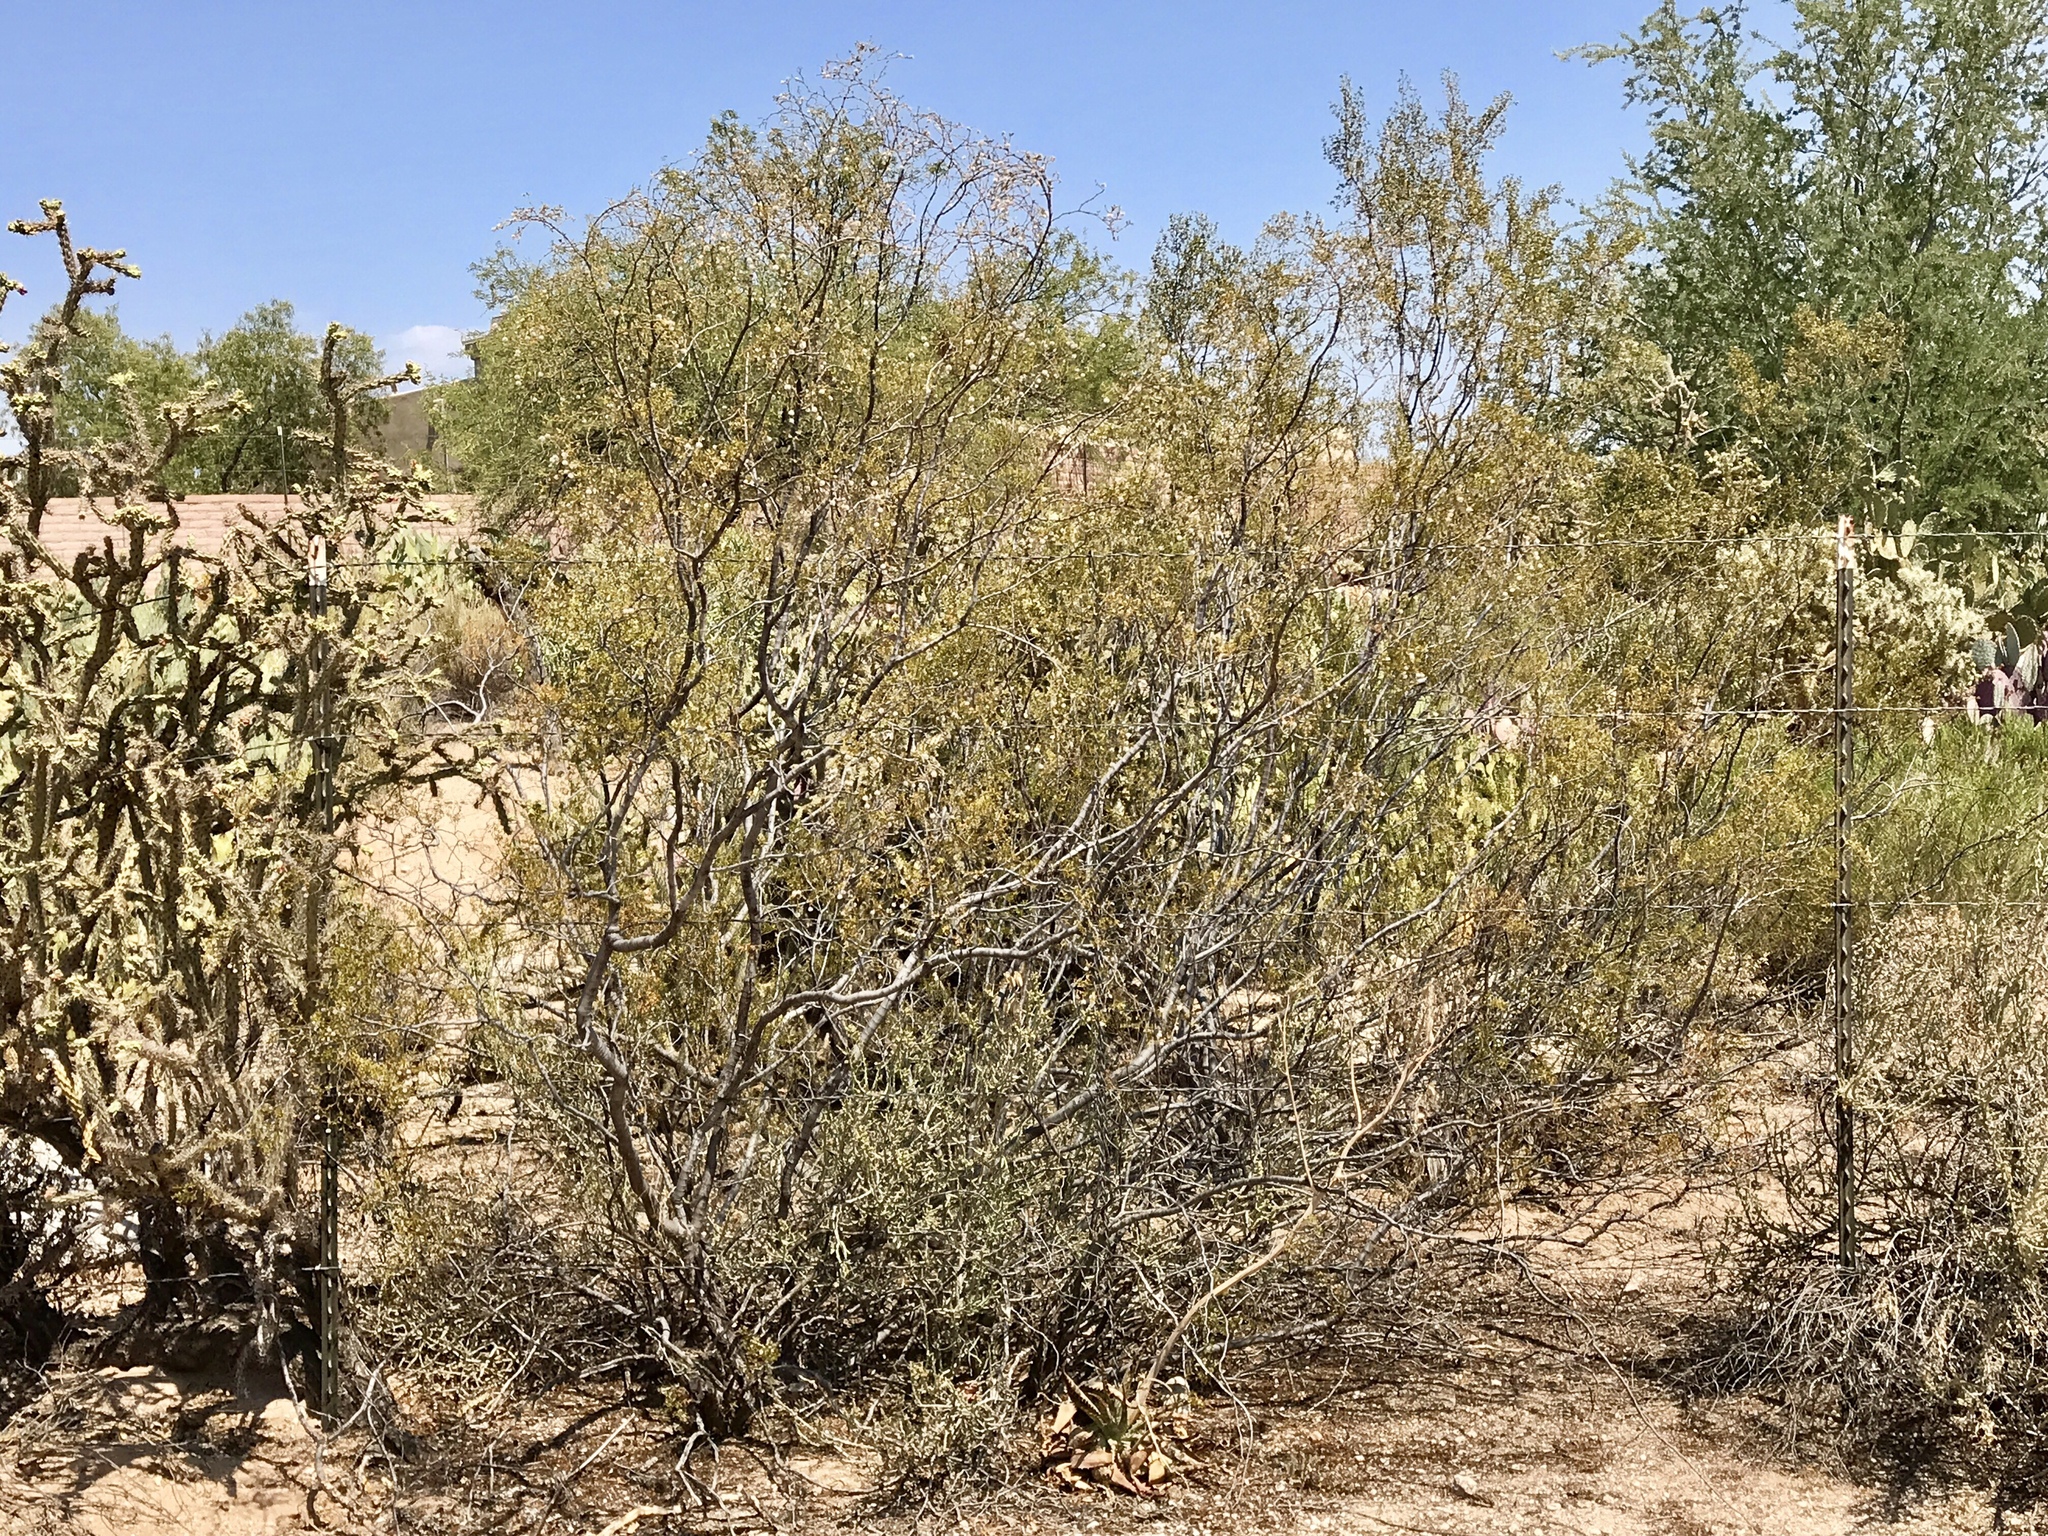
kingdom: Plantae
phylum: Tracheophyta
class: Magnoliopsida
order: Zygophyllales
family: Zygophyllaceae
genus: Larrea
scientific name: Larrea tridentata
